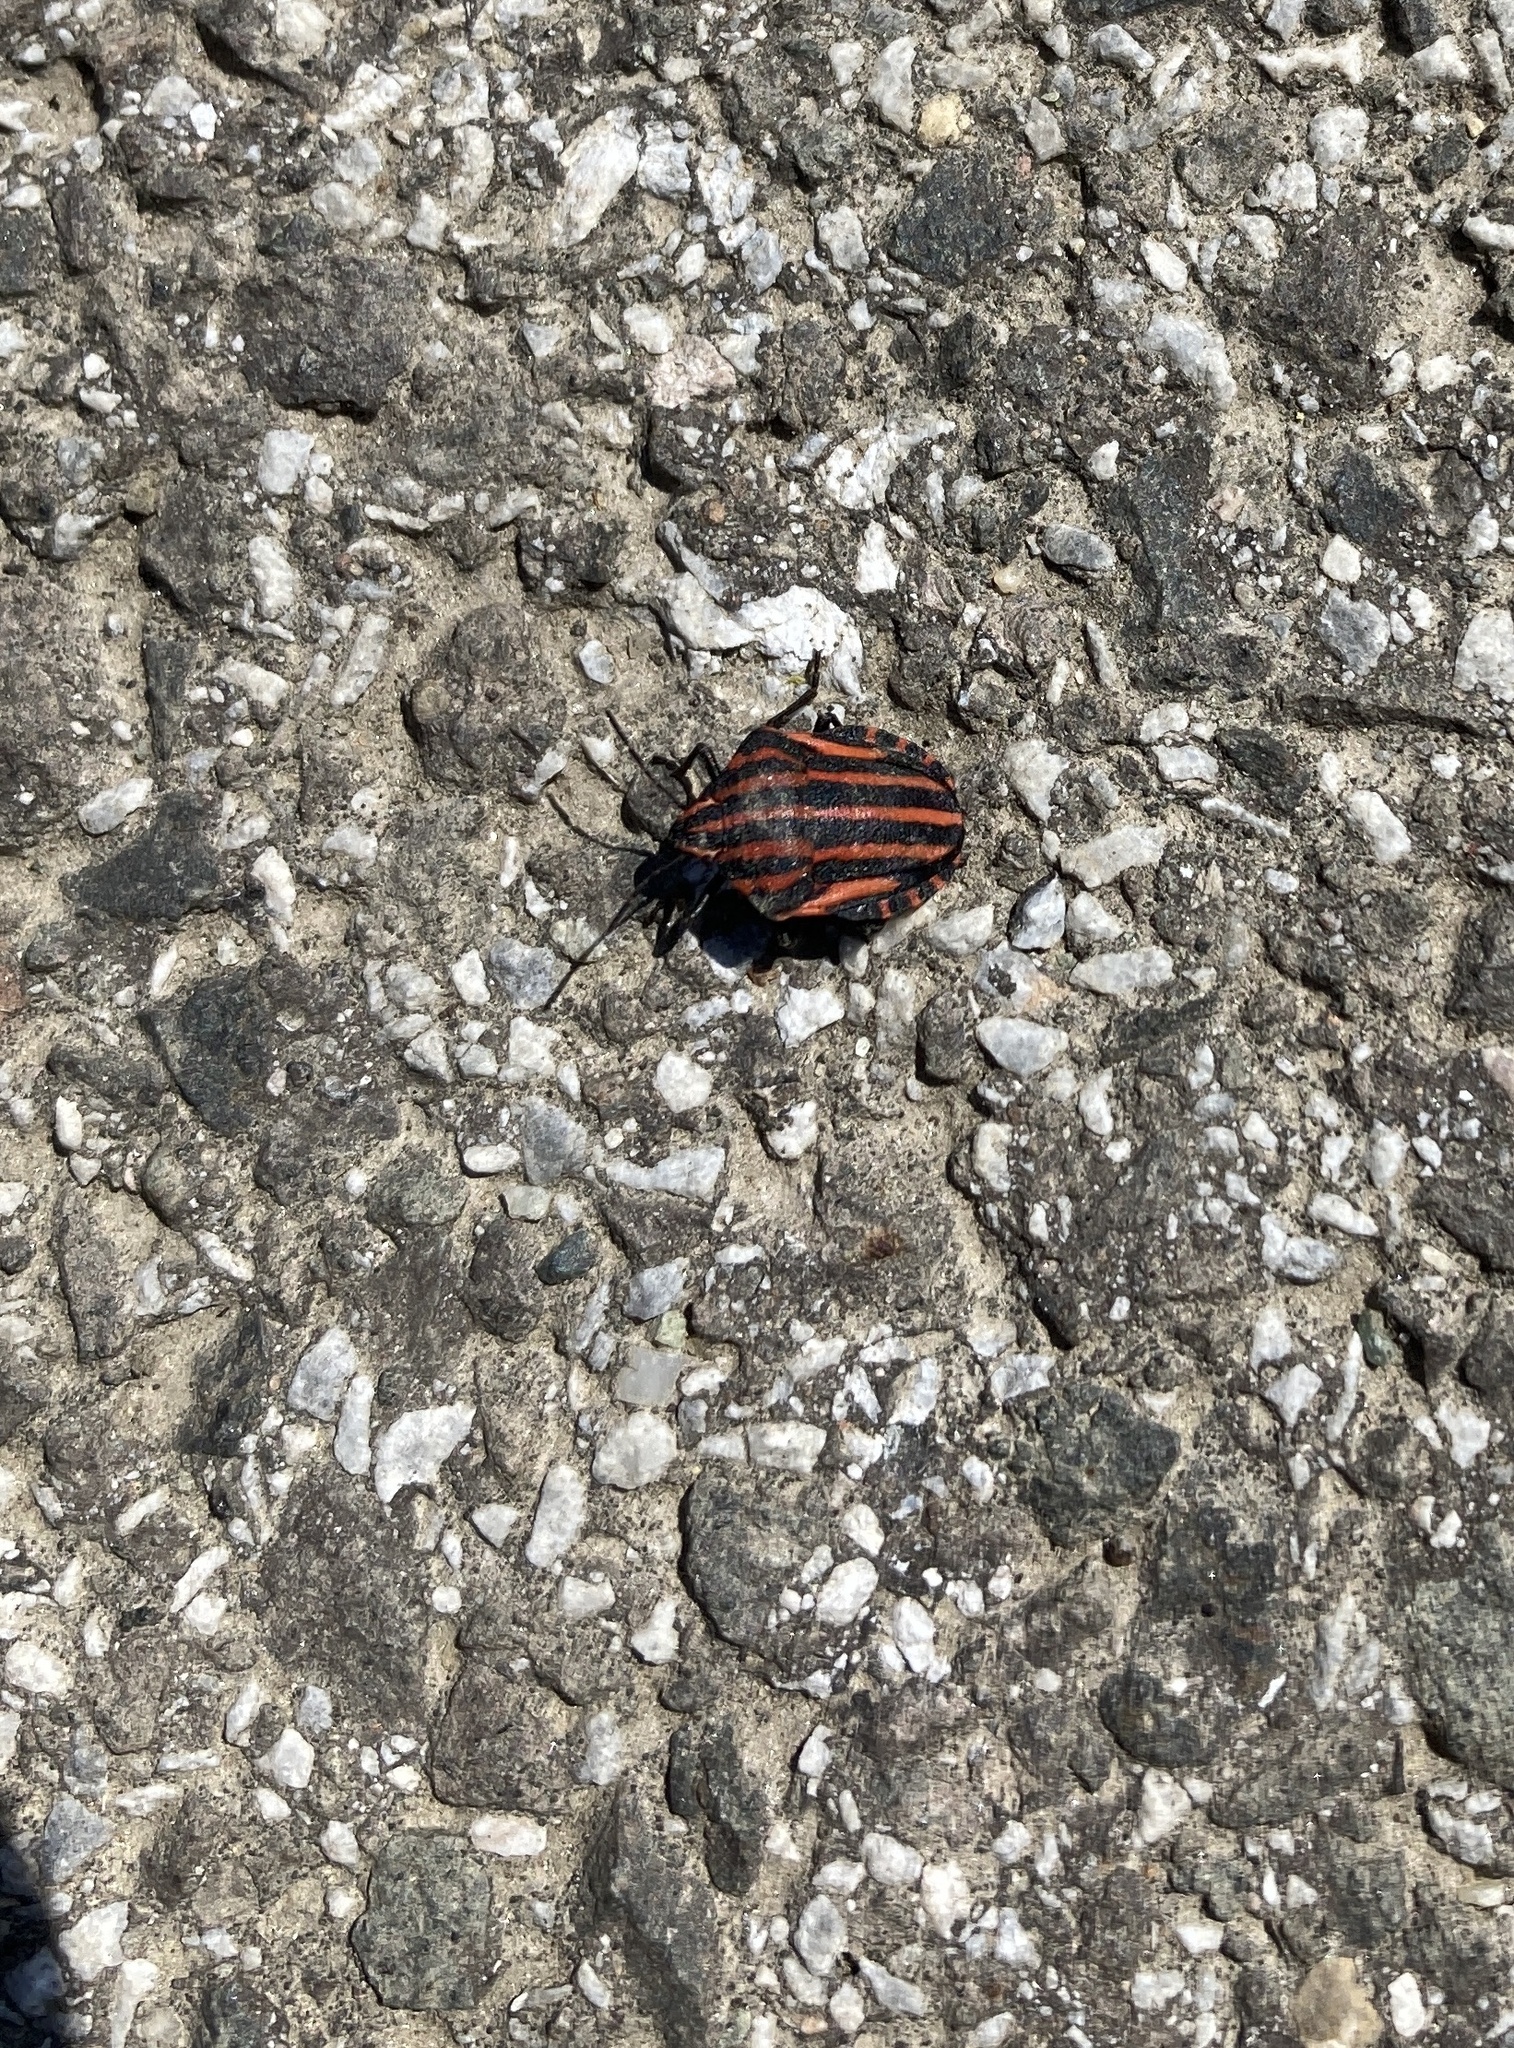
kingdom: Animalia
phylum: Arthropoda
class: Insecta
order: Hemiptera
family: Pentatomidae
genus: Graphosoma
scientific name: Graphosoma italicum
